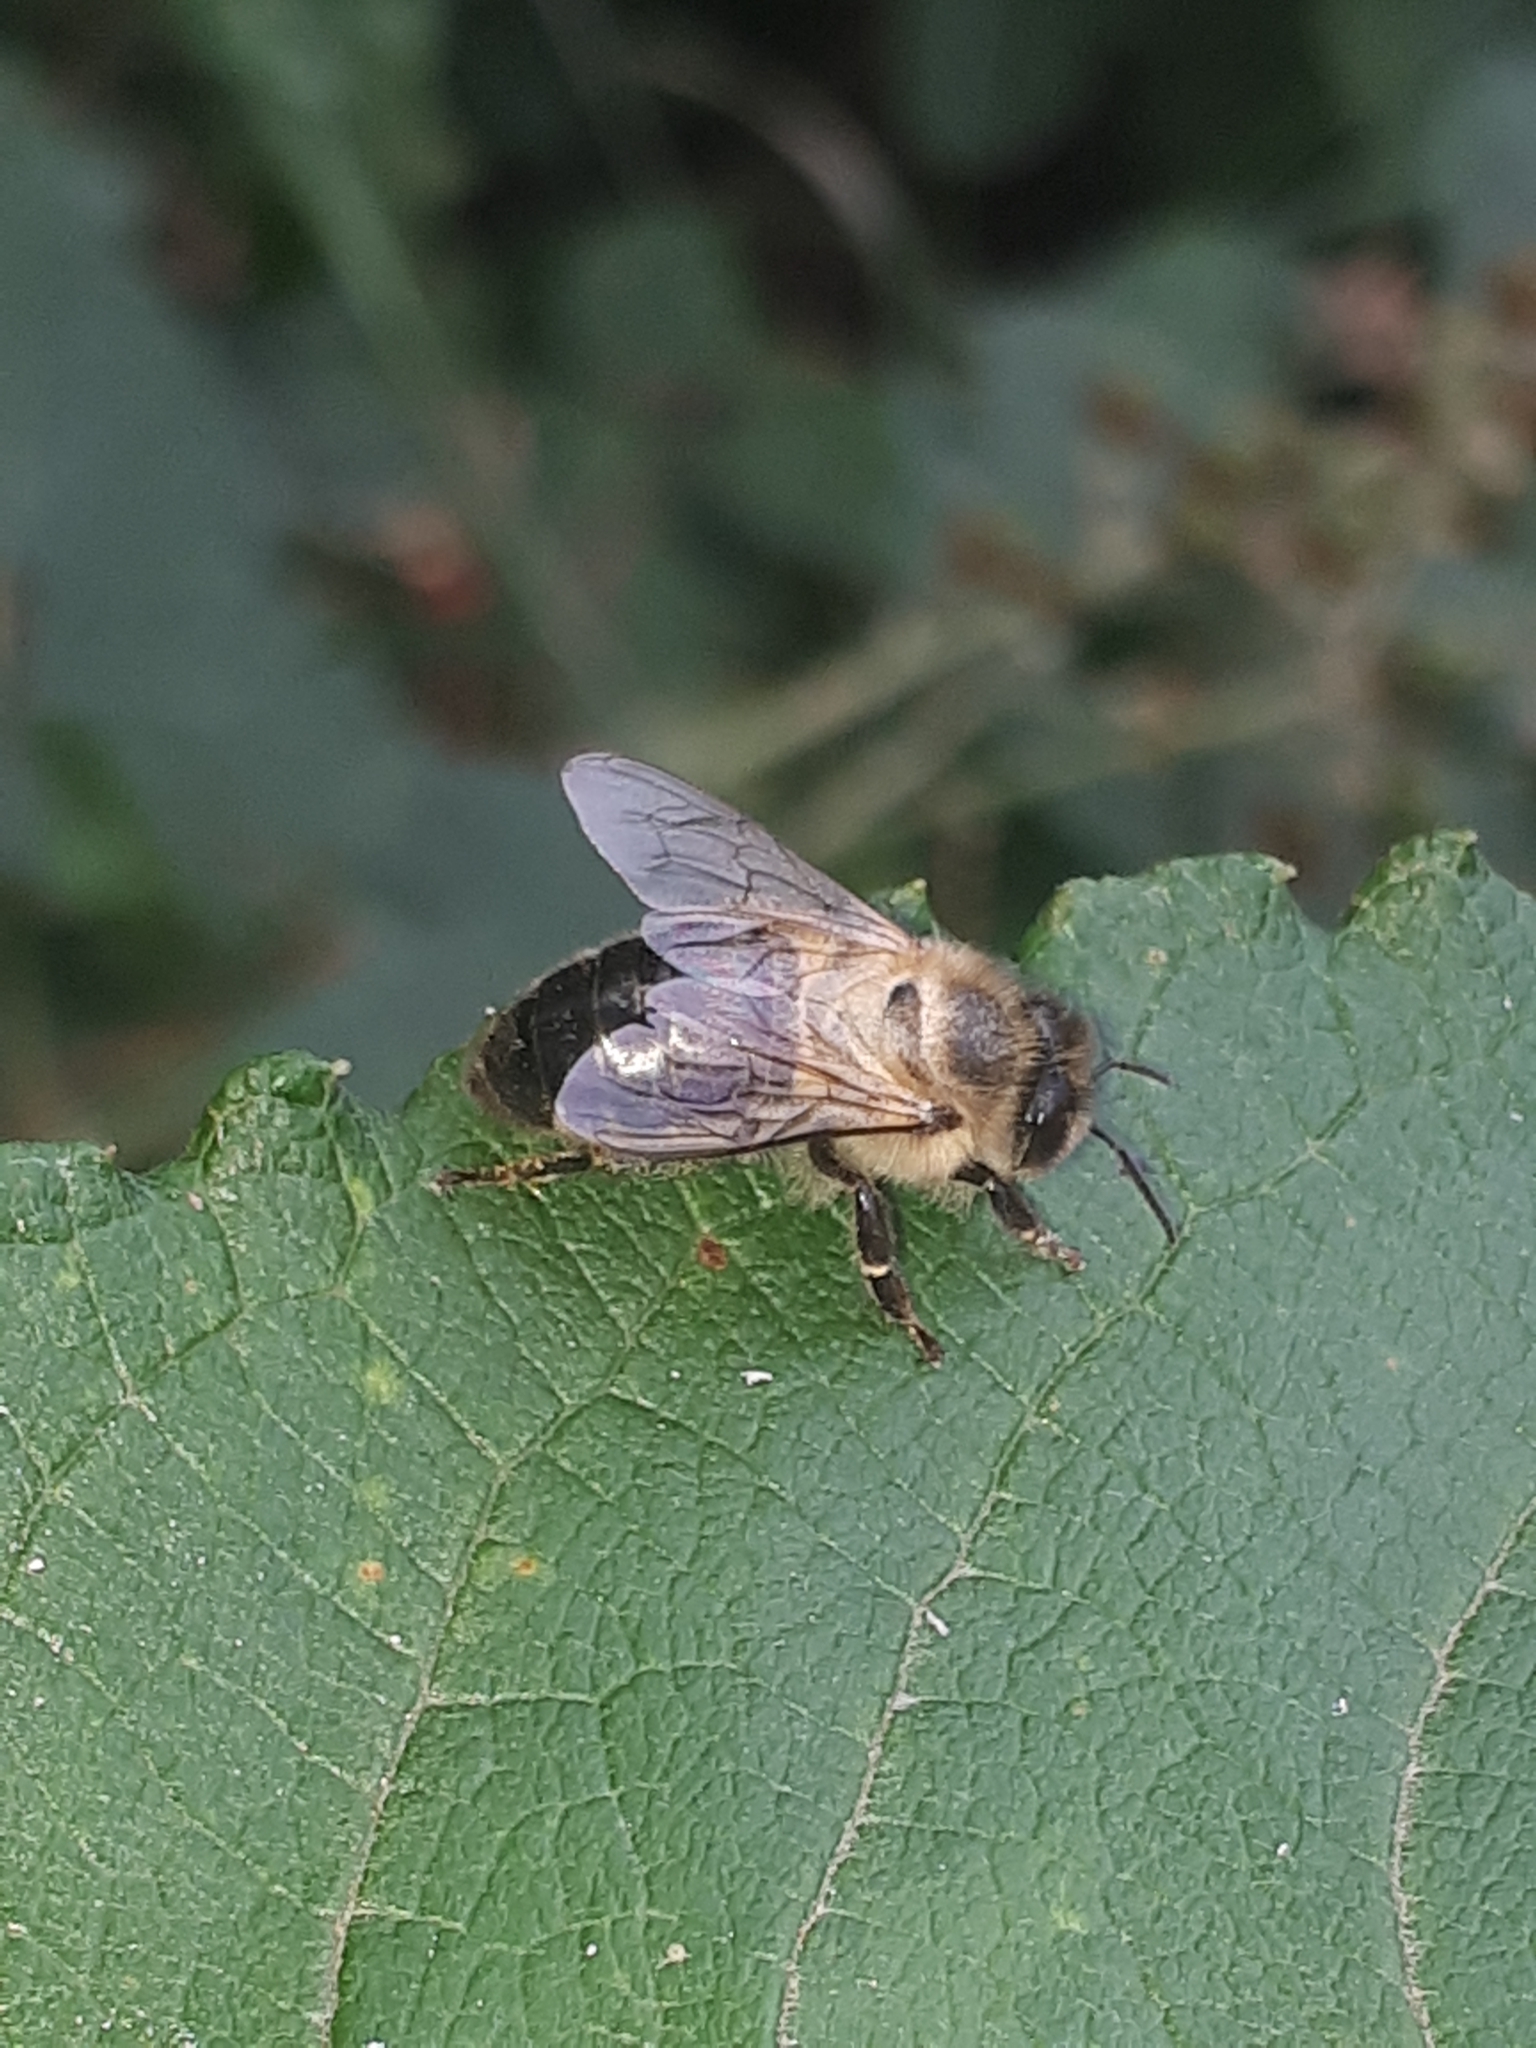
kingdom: Animalia
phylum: Arthropoda
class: Insecta
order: Hymenoptera
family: Apidae
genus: Apis
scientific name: Apis mellifera
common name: Honey bee
